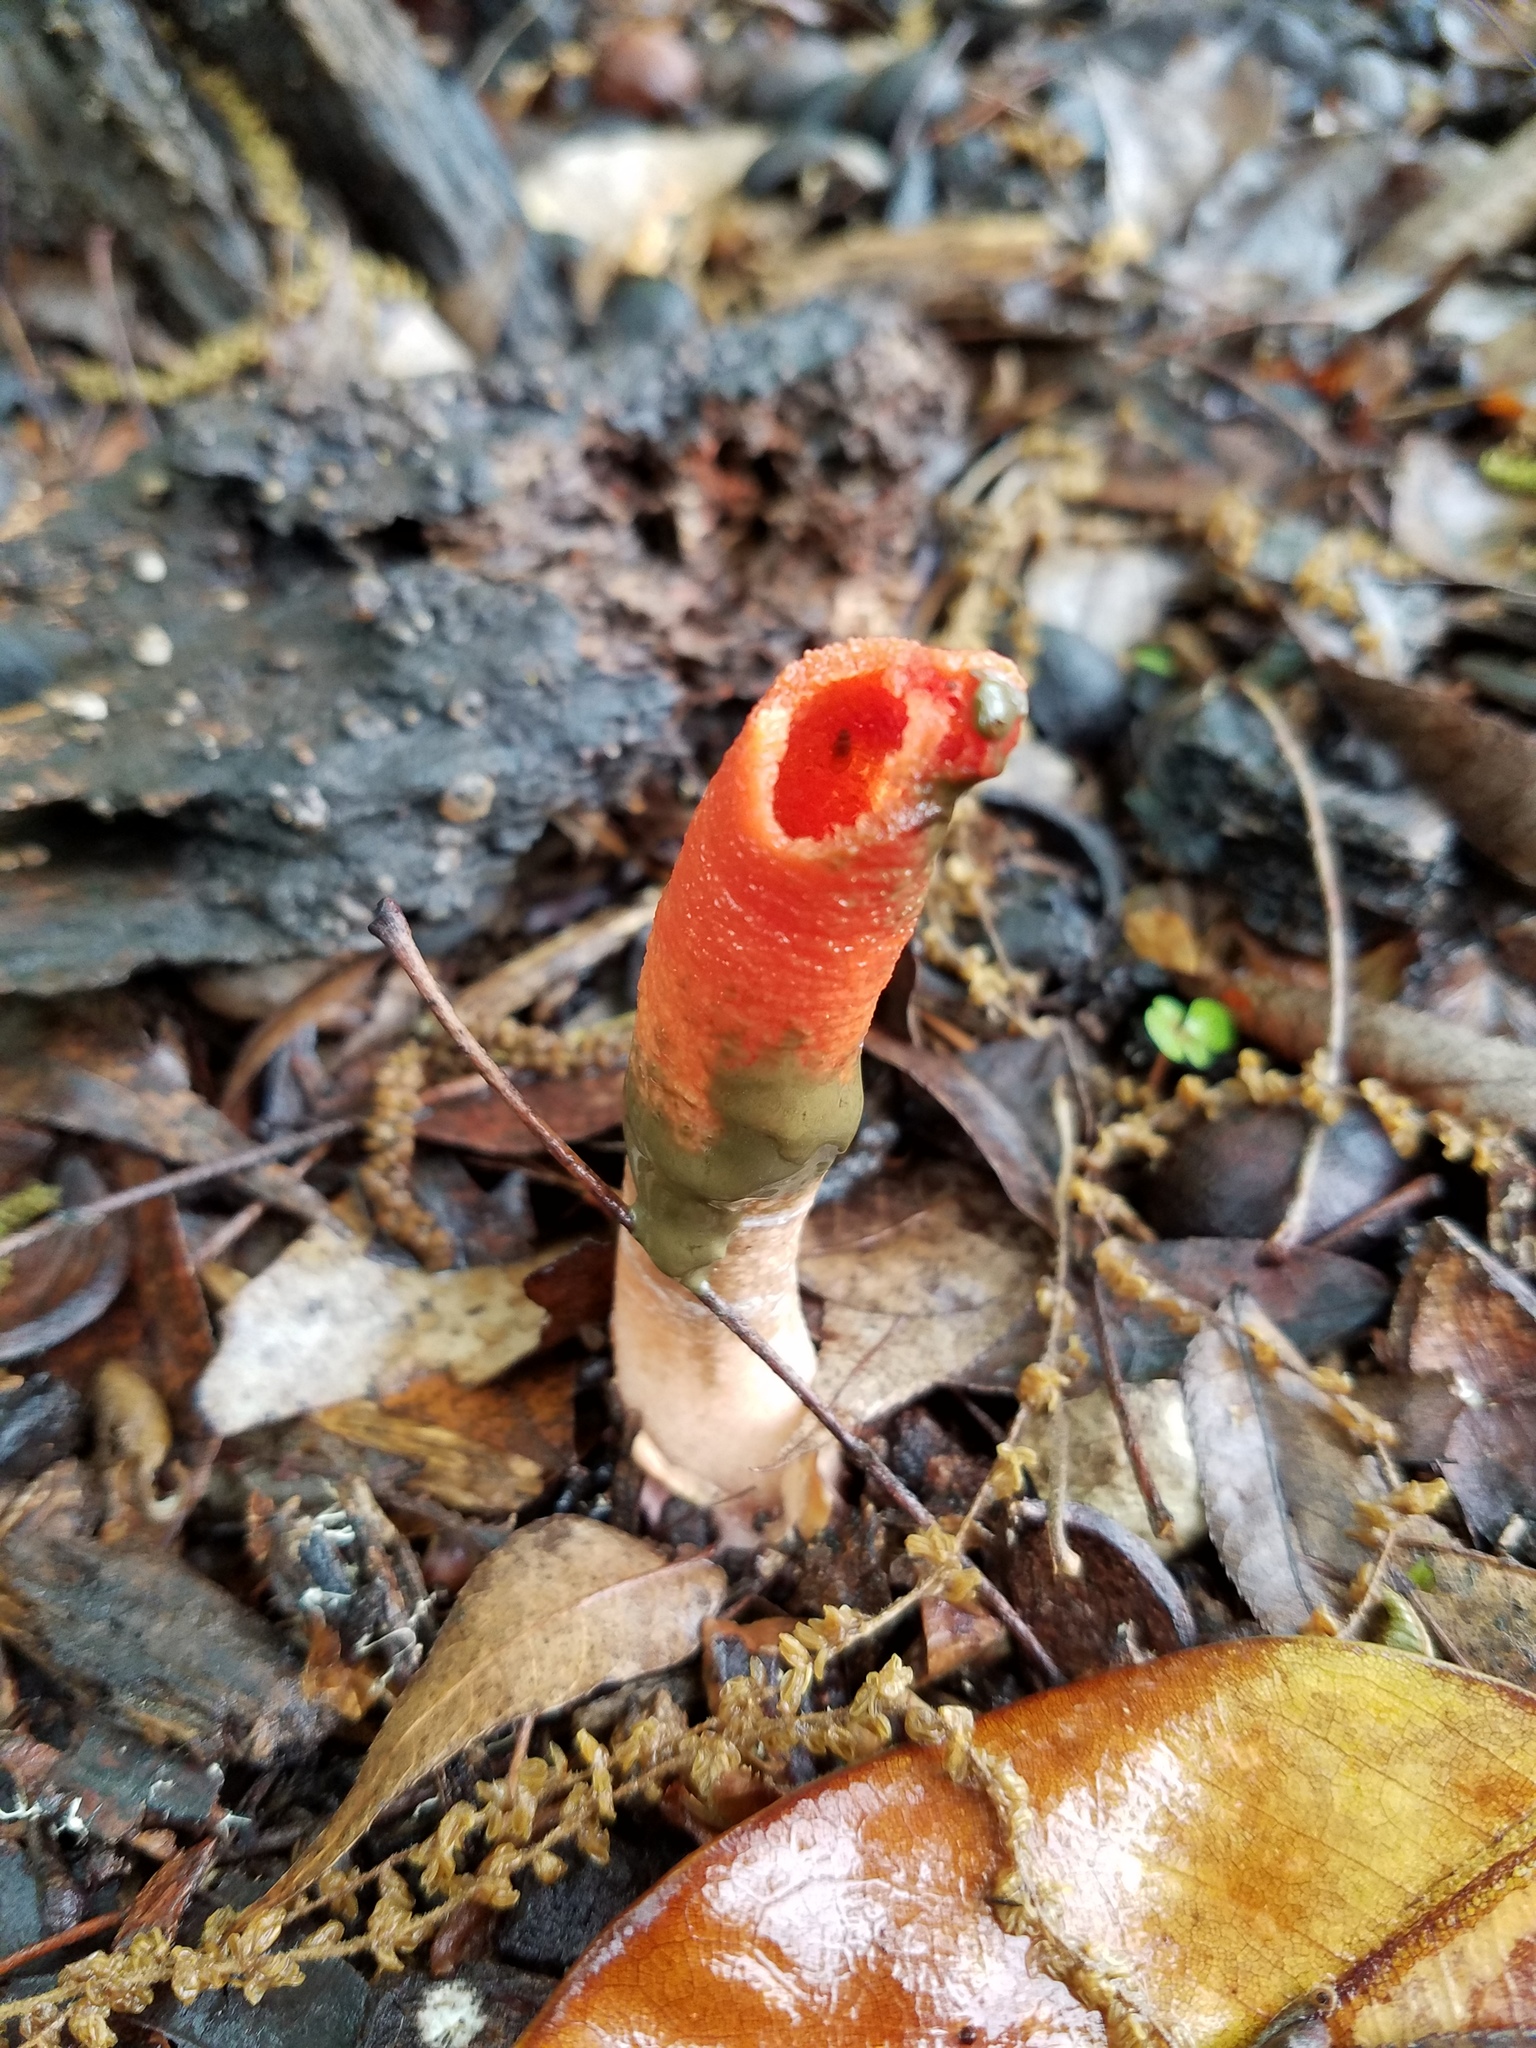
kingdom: Fungi
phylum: Basidiomycota
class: Agaricomycetes
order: Phallales
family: Phallaceae
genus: Mutinus
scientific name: Mutinus elegans
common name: Devil's dipstick
